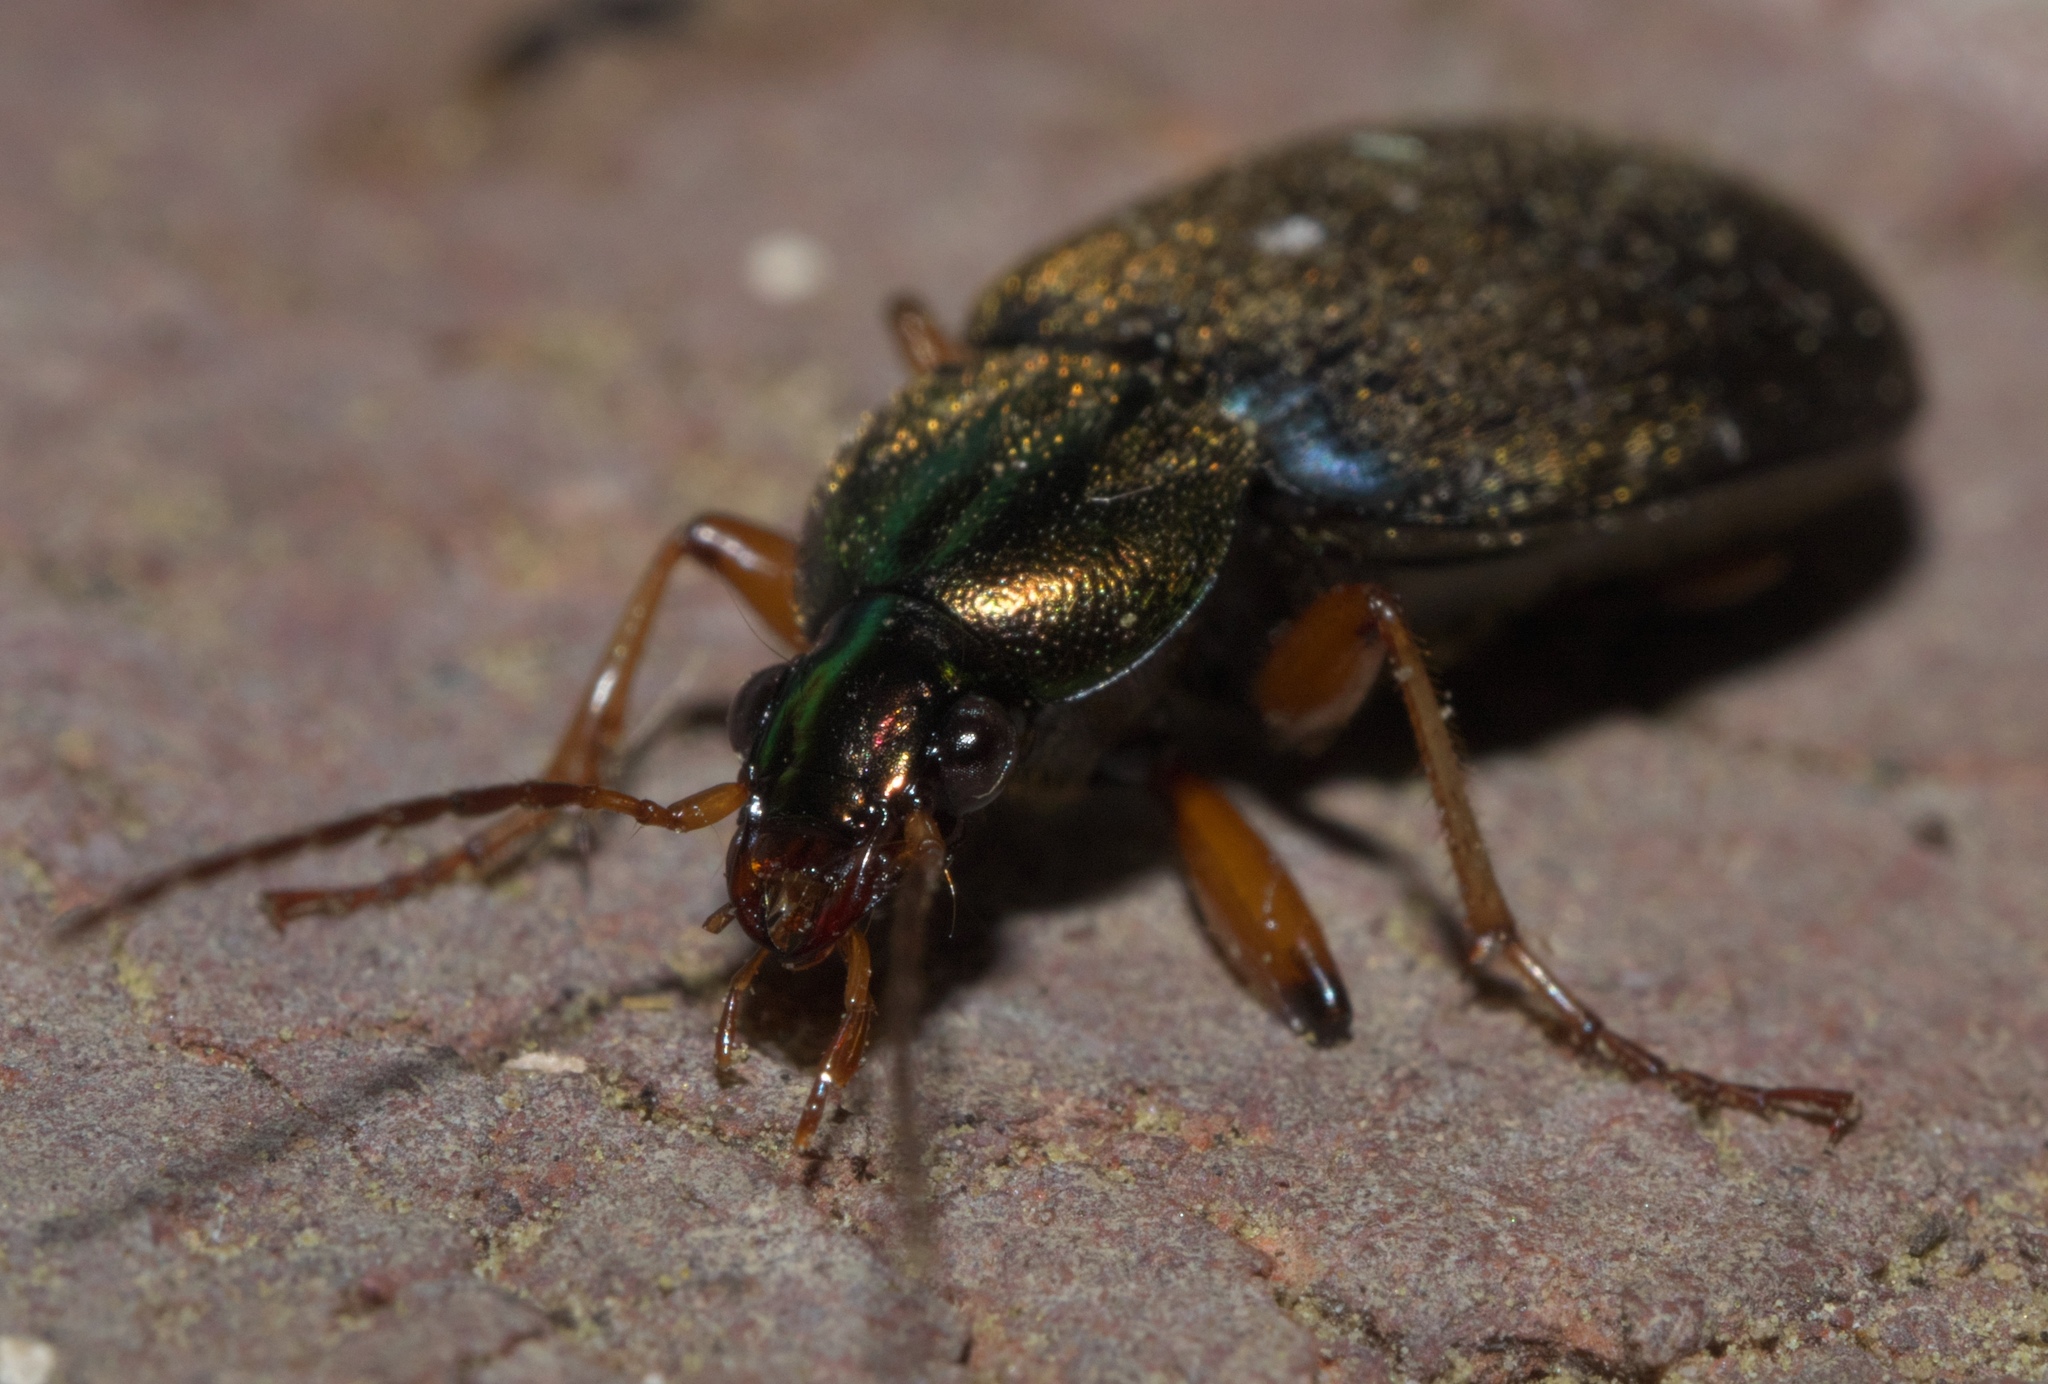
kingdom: Animalia
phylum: Arthropoda
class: Insecta
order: Coleoptera
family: Carabidae
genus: Chlaenius
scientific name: Chlaenius tricolor
